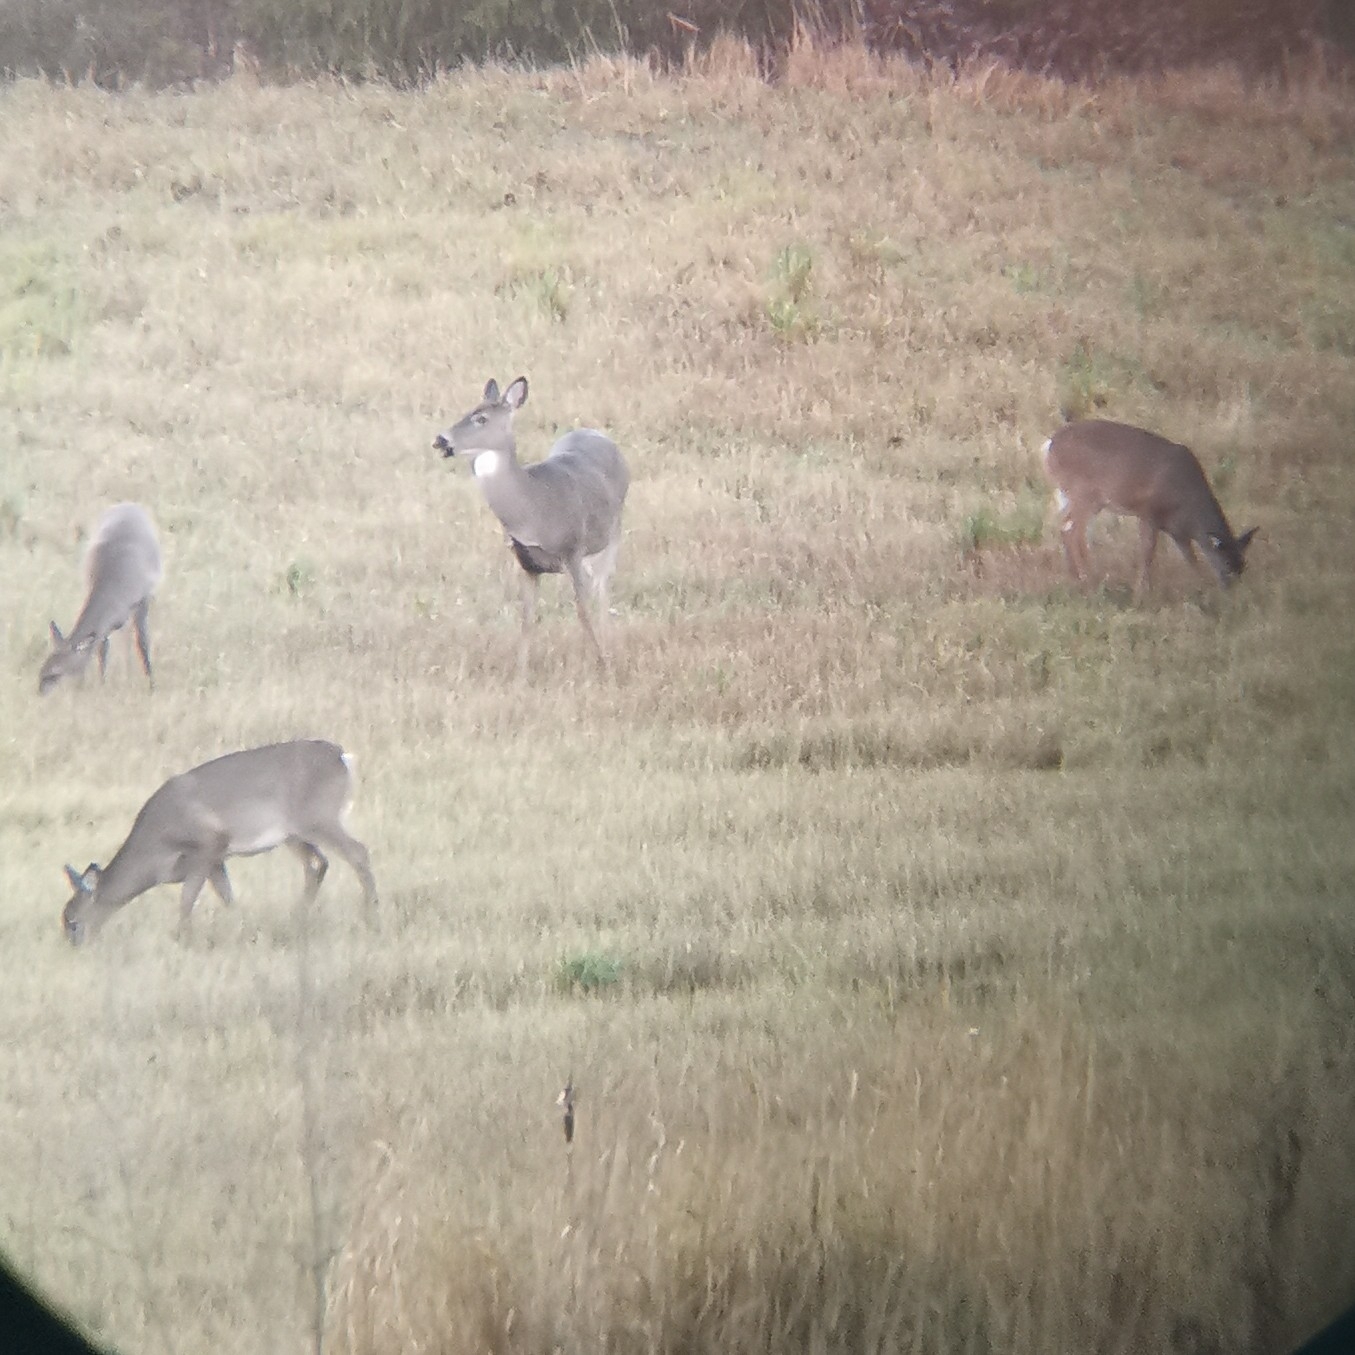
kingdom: Animalia
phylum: Chordata
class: Mammalia
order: Artiodactyla
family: Cervidae
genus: Odocoileus
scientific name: Odocoileus virginianus
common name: White-tailed deer
